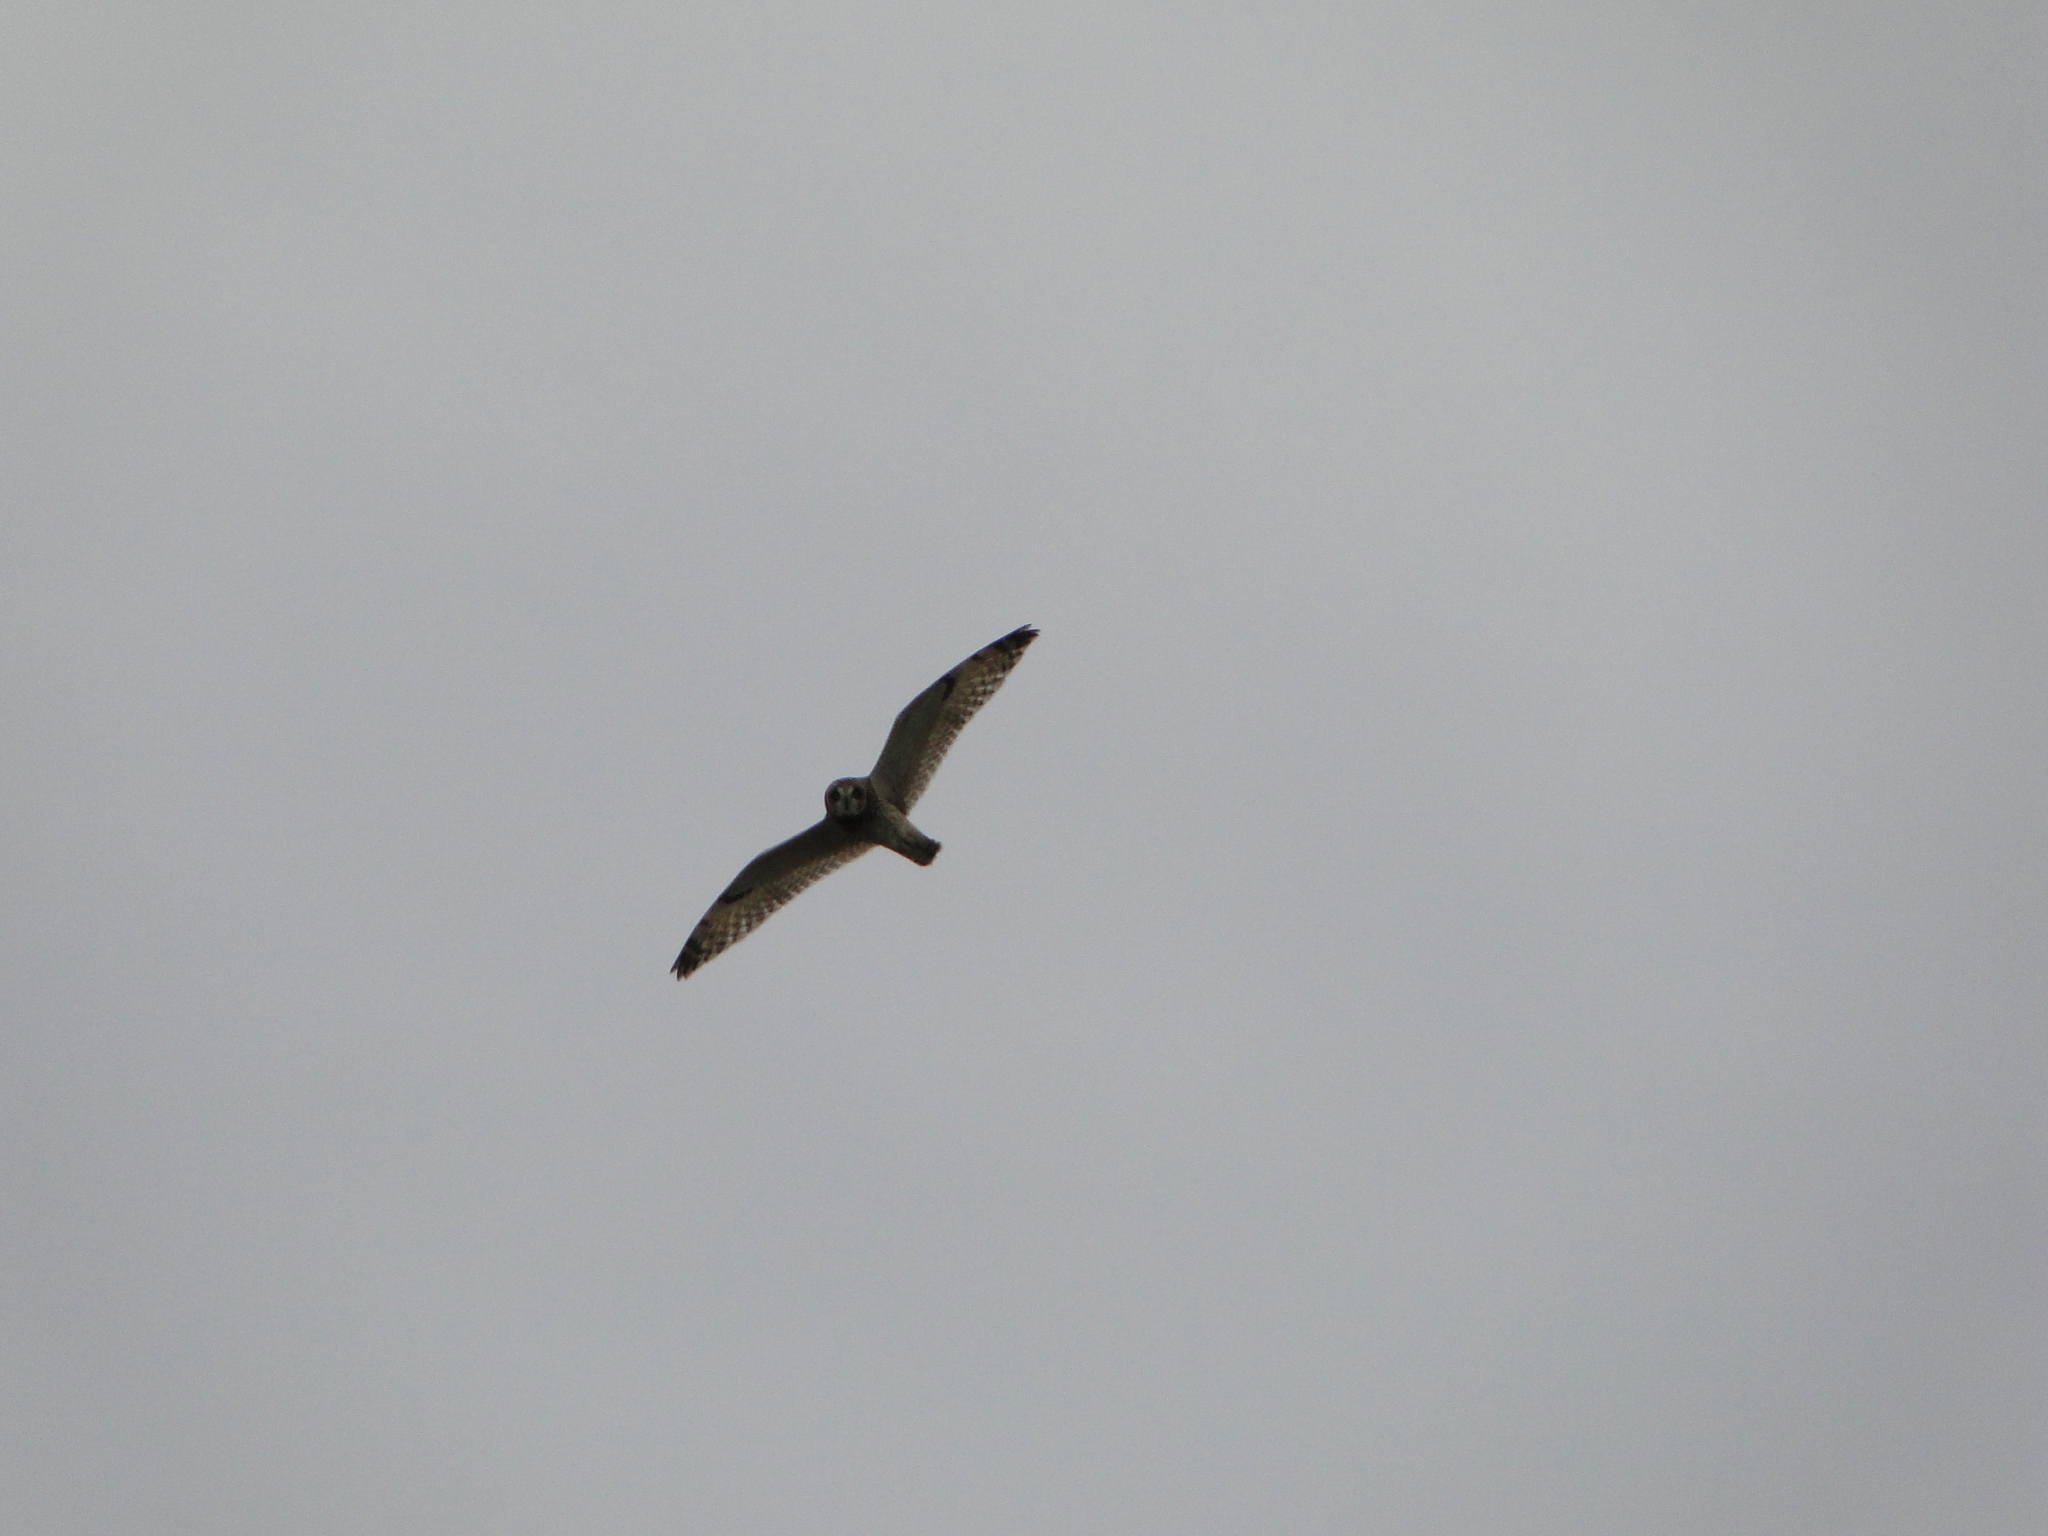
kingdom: Animalia
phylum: Chordata
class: Aves
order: Strigiformes
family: Strigidae
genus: Asio
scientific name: Asio flammeus
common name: Short-eared owl
